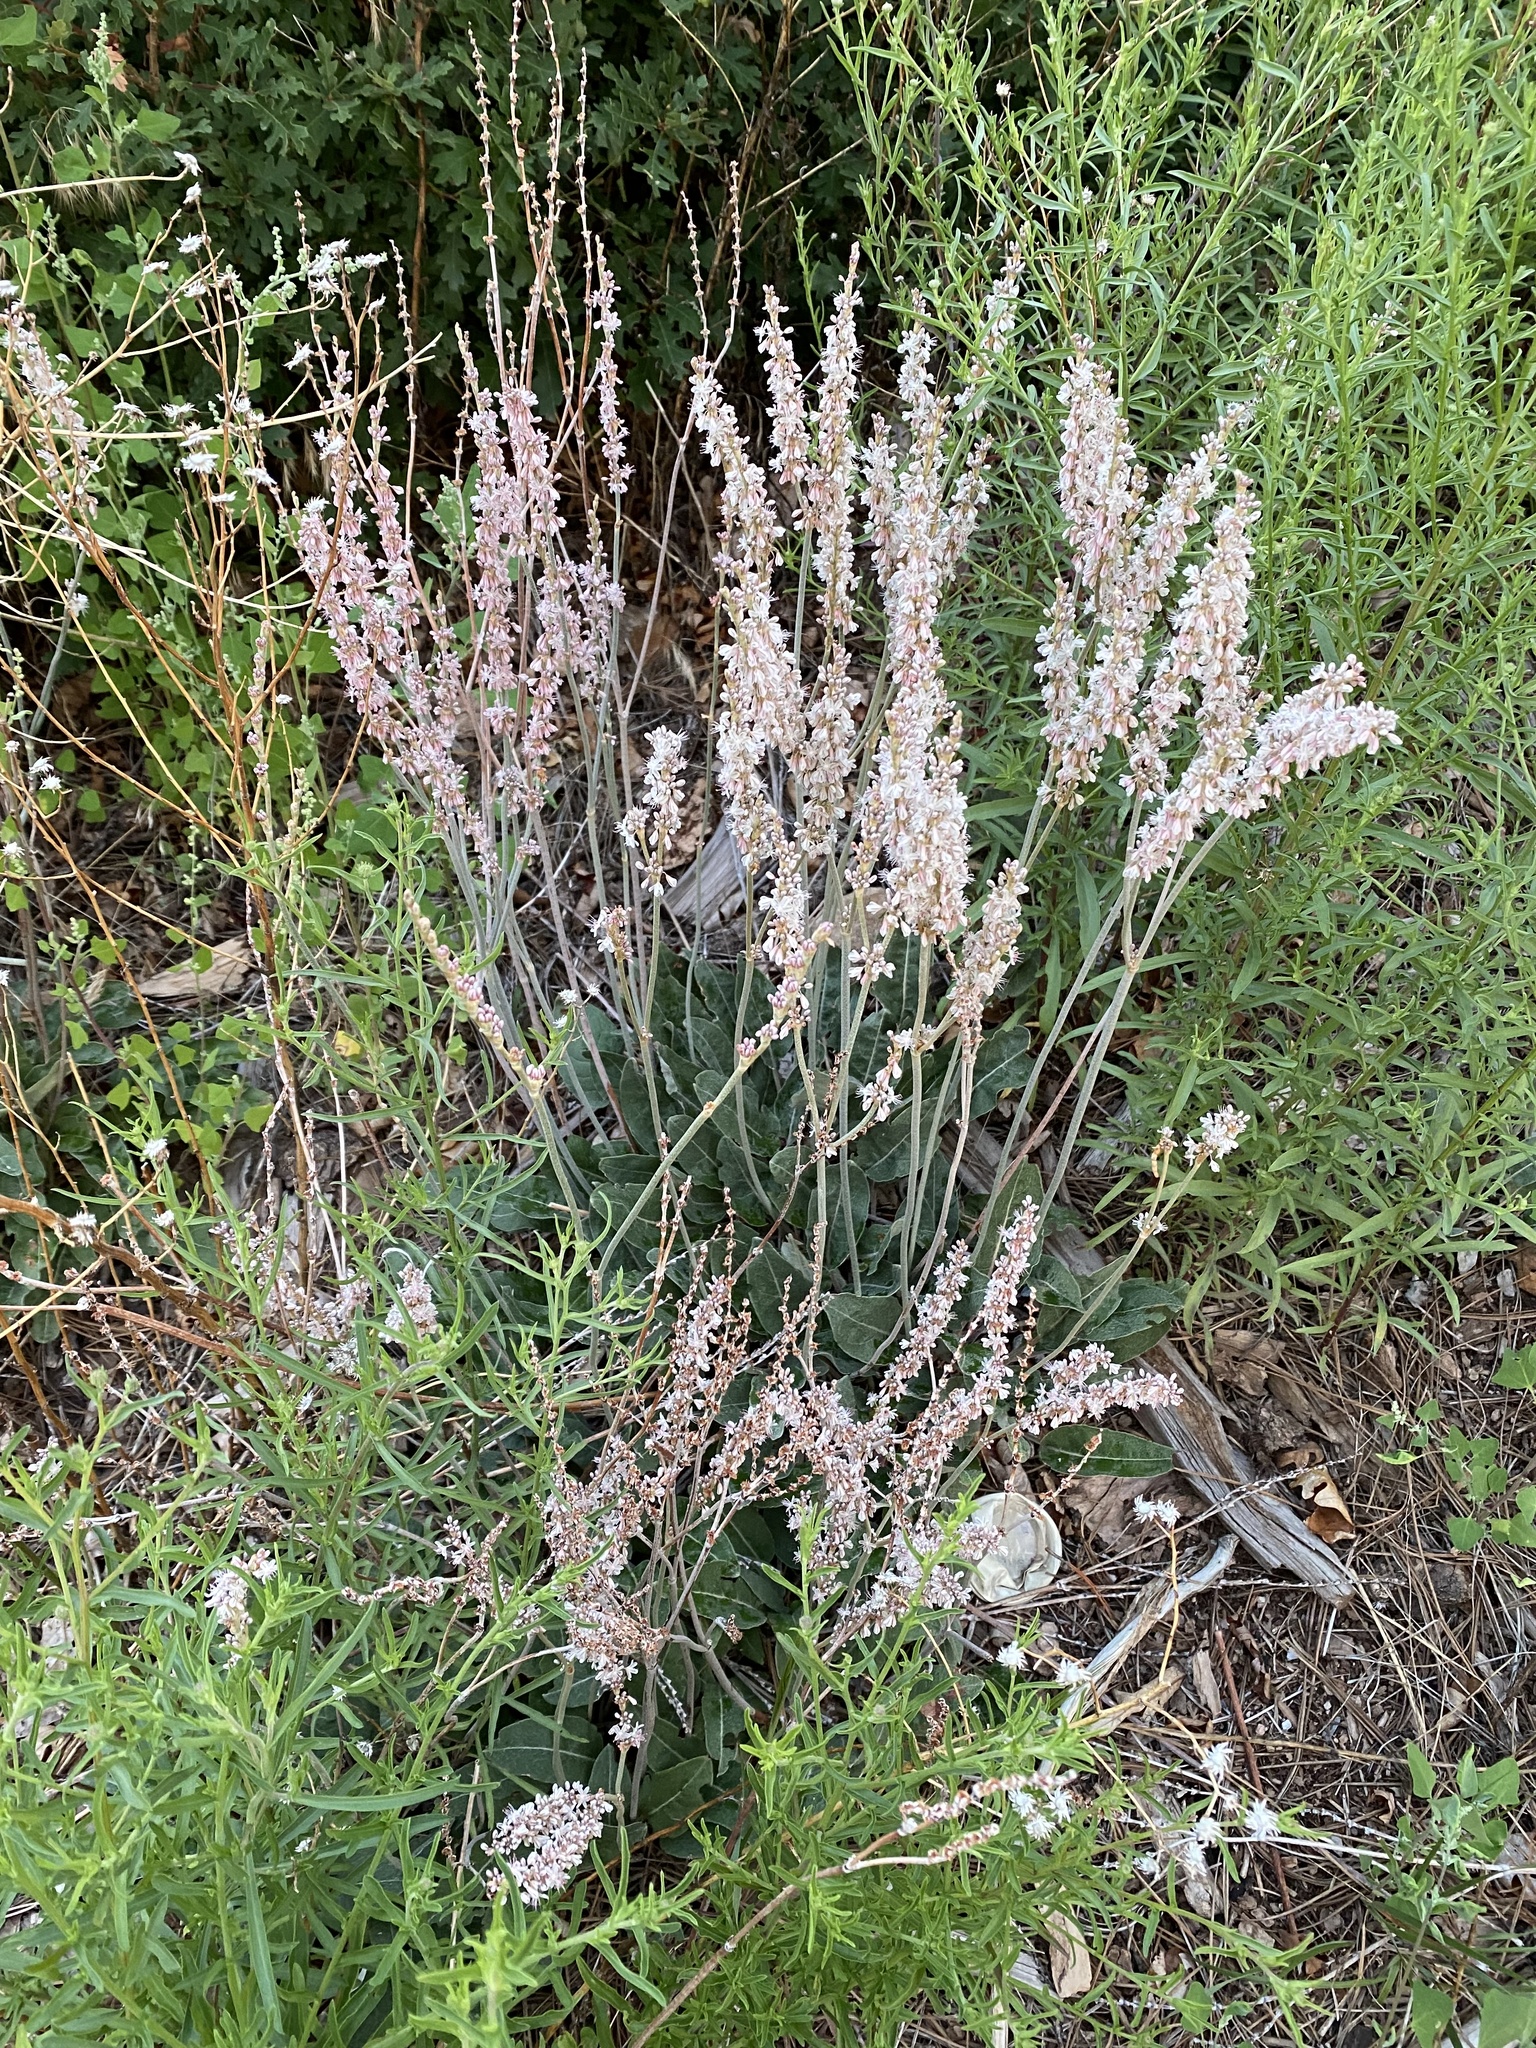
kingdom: Plantae
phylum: Tracheophyta
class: Magnoliopsida
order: Caryophyllales
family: Polygonaceae
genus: Eriogonum
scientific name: Eriogonum racemosum
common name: Redroot wild buckwheat
